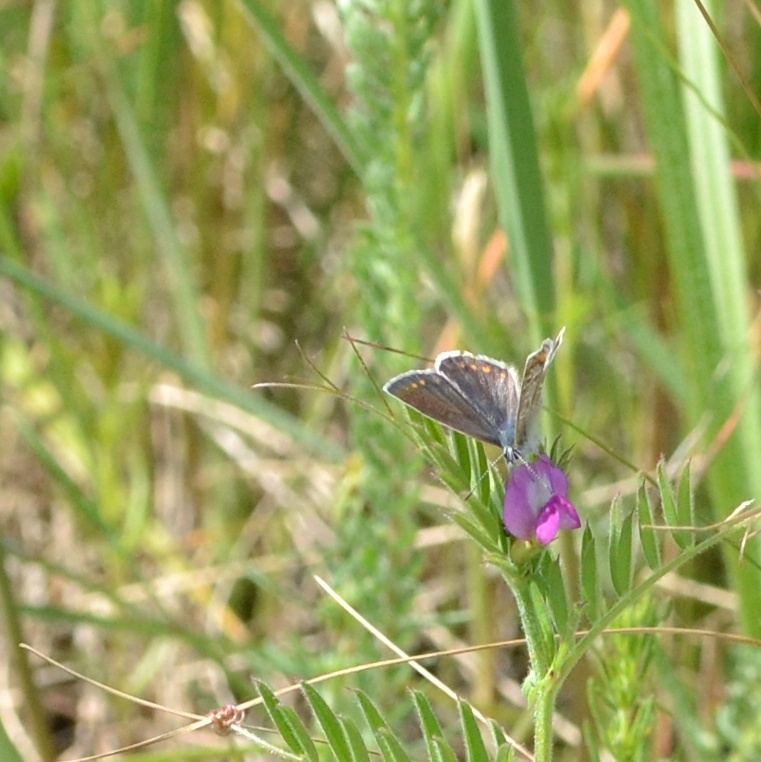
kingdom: Animalia
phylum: Arthropoda
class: Insecta
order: Lepidoptera
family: Lycaenidae
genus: Polyommatus
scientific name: Polyommatus icarus
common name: Common blue
